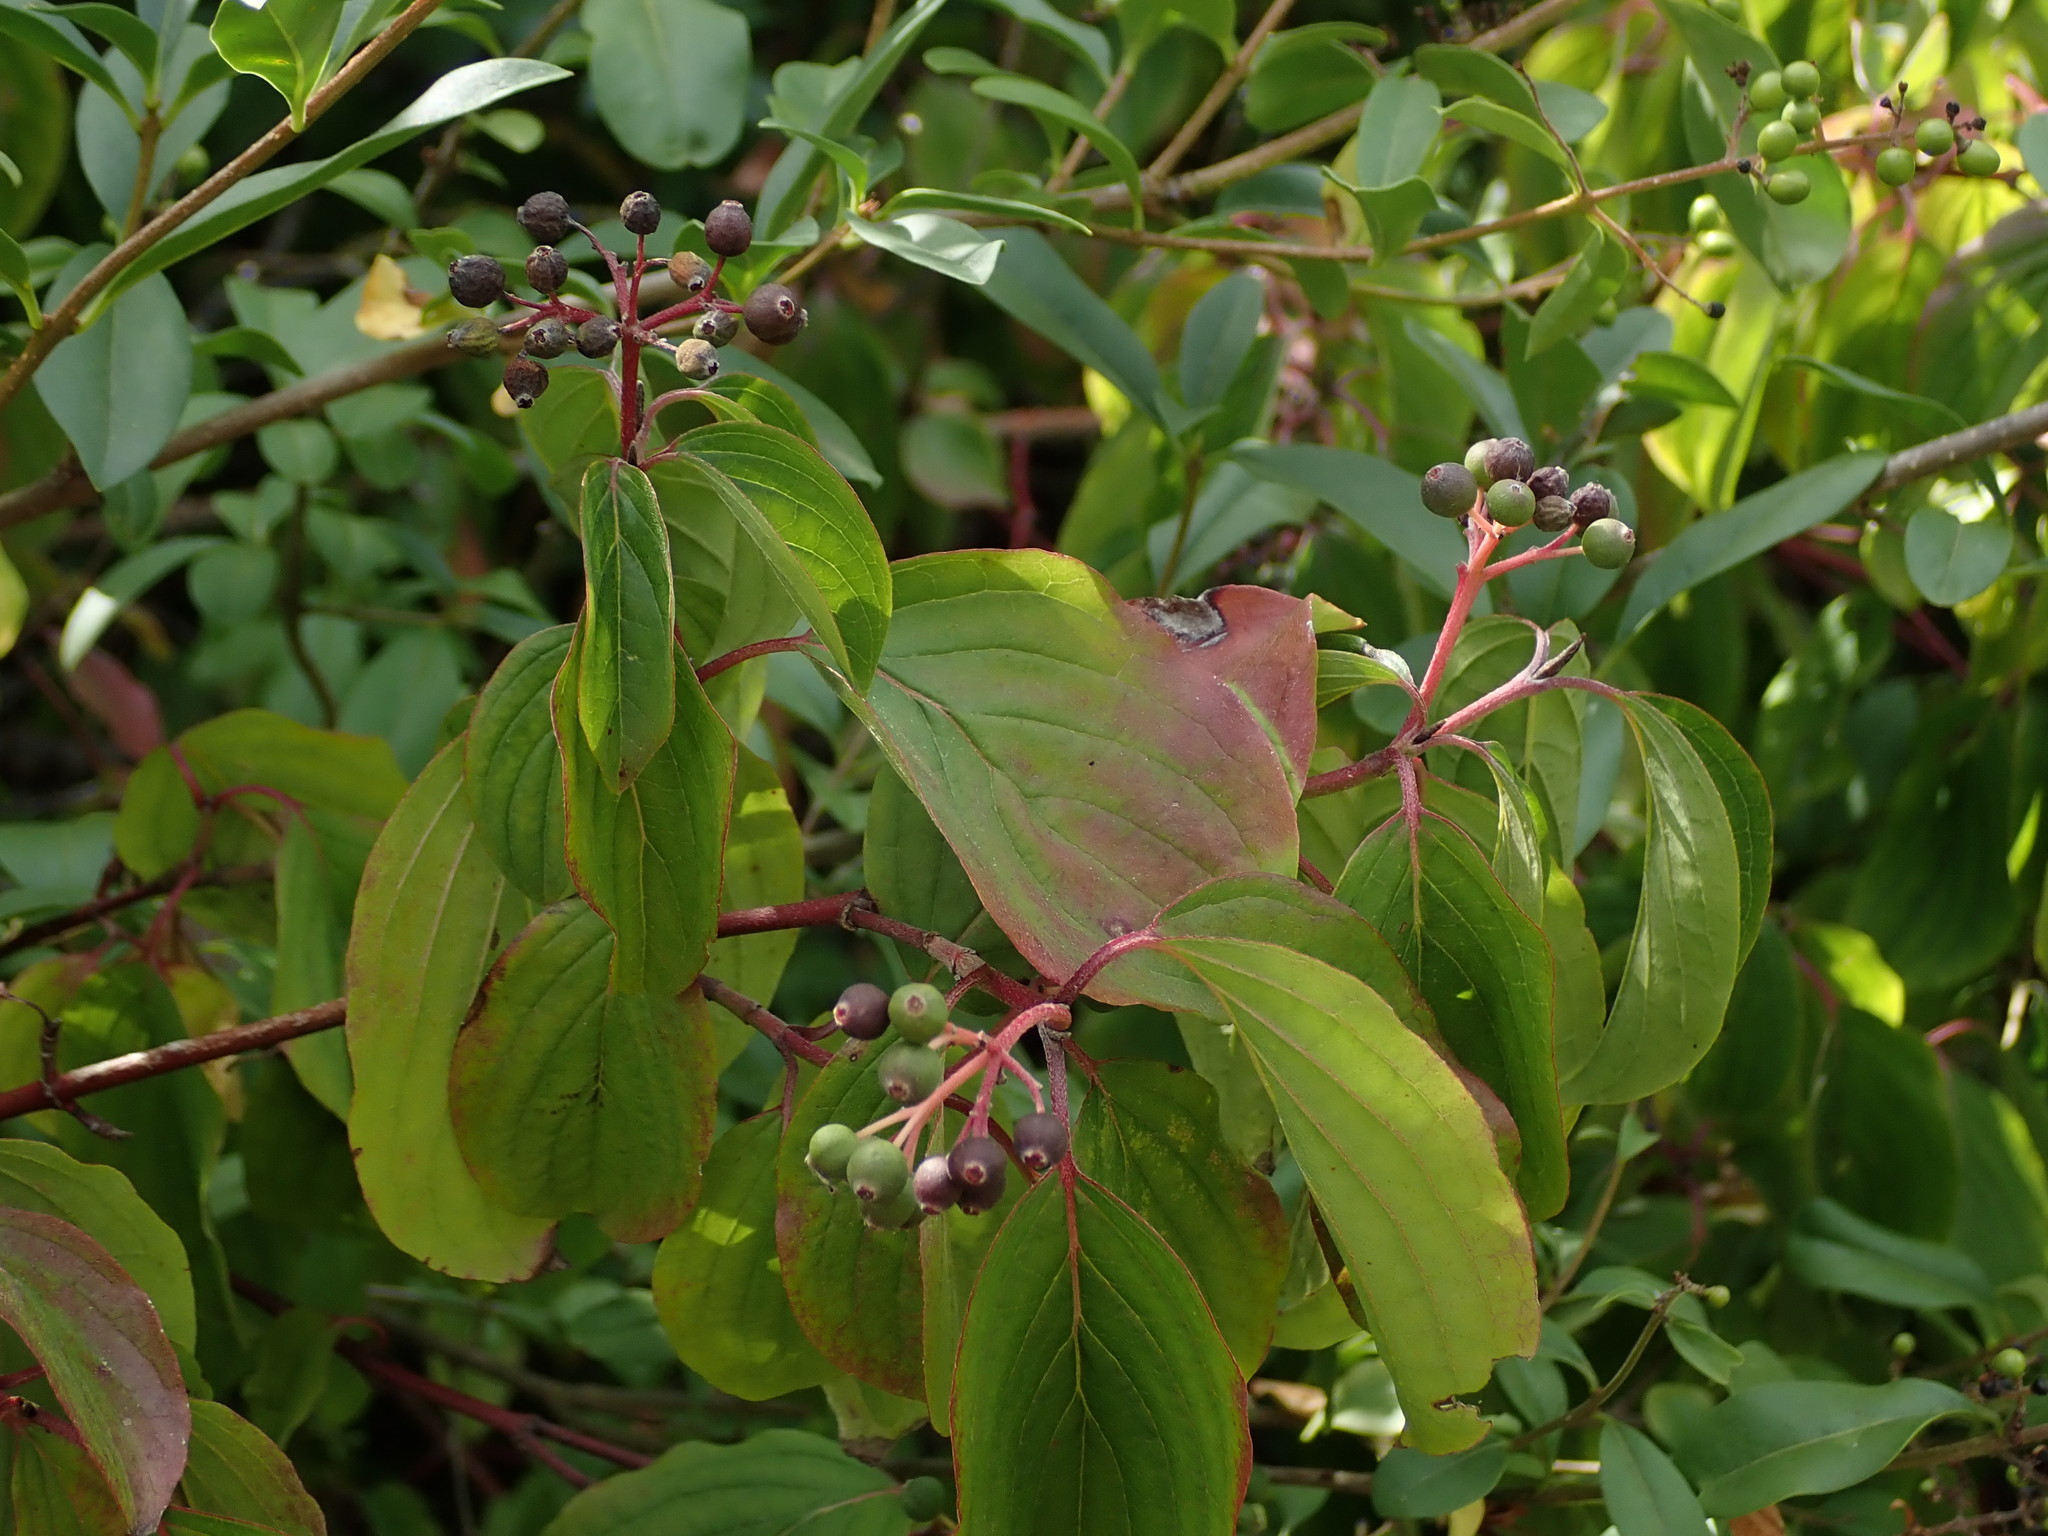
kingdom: Plantae
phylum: Tracheophyta
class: Magnoliopsida
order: Cornales
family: Cornaceae
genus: Cornus
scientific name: Cornus sanguinea
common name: Dogwood
